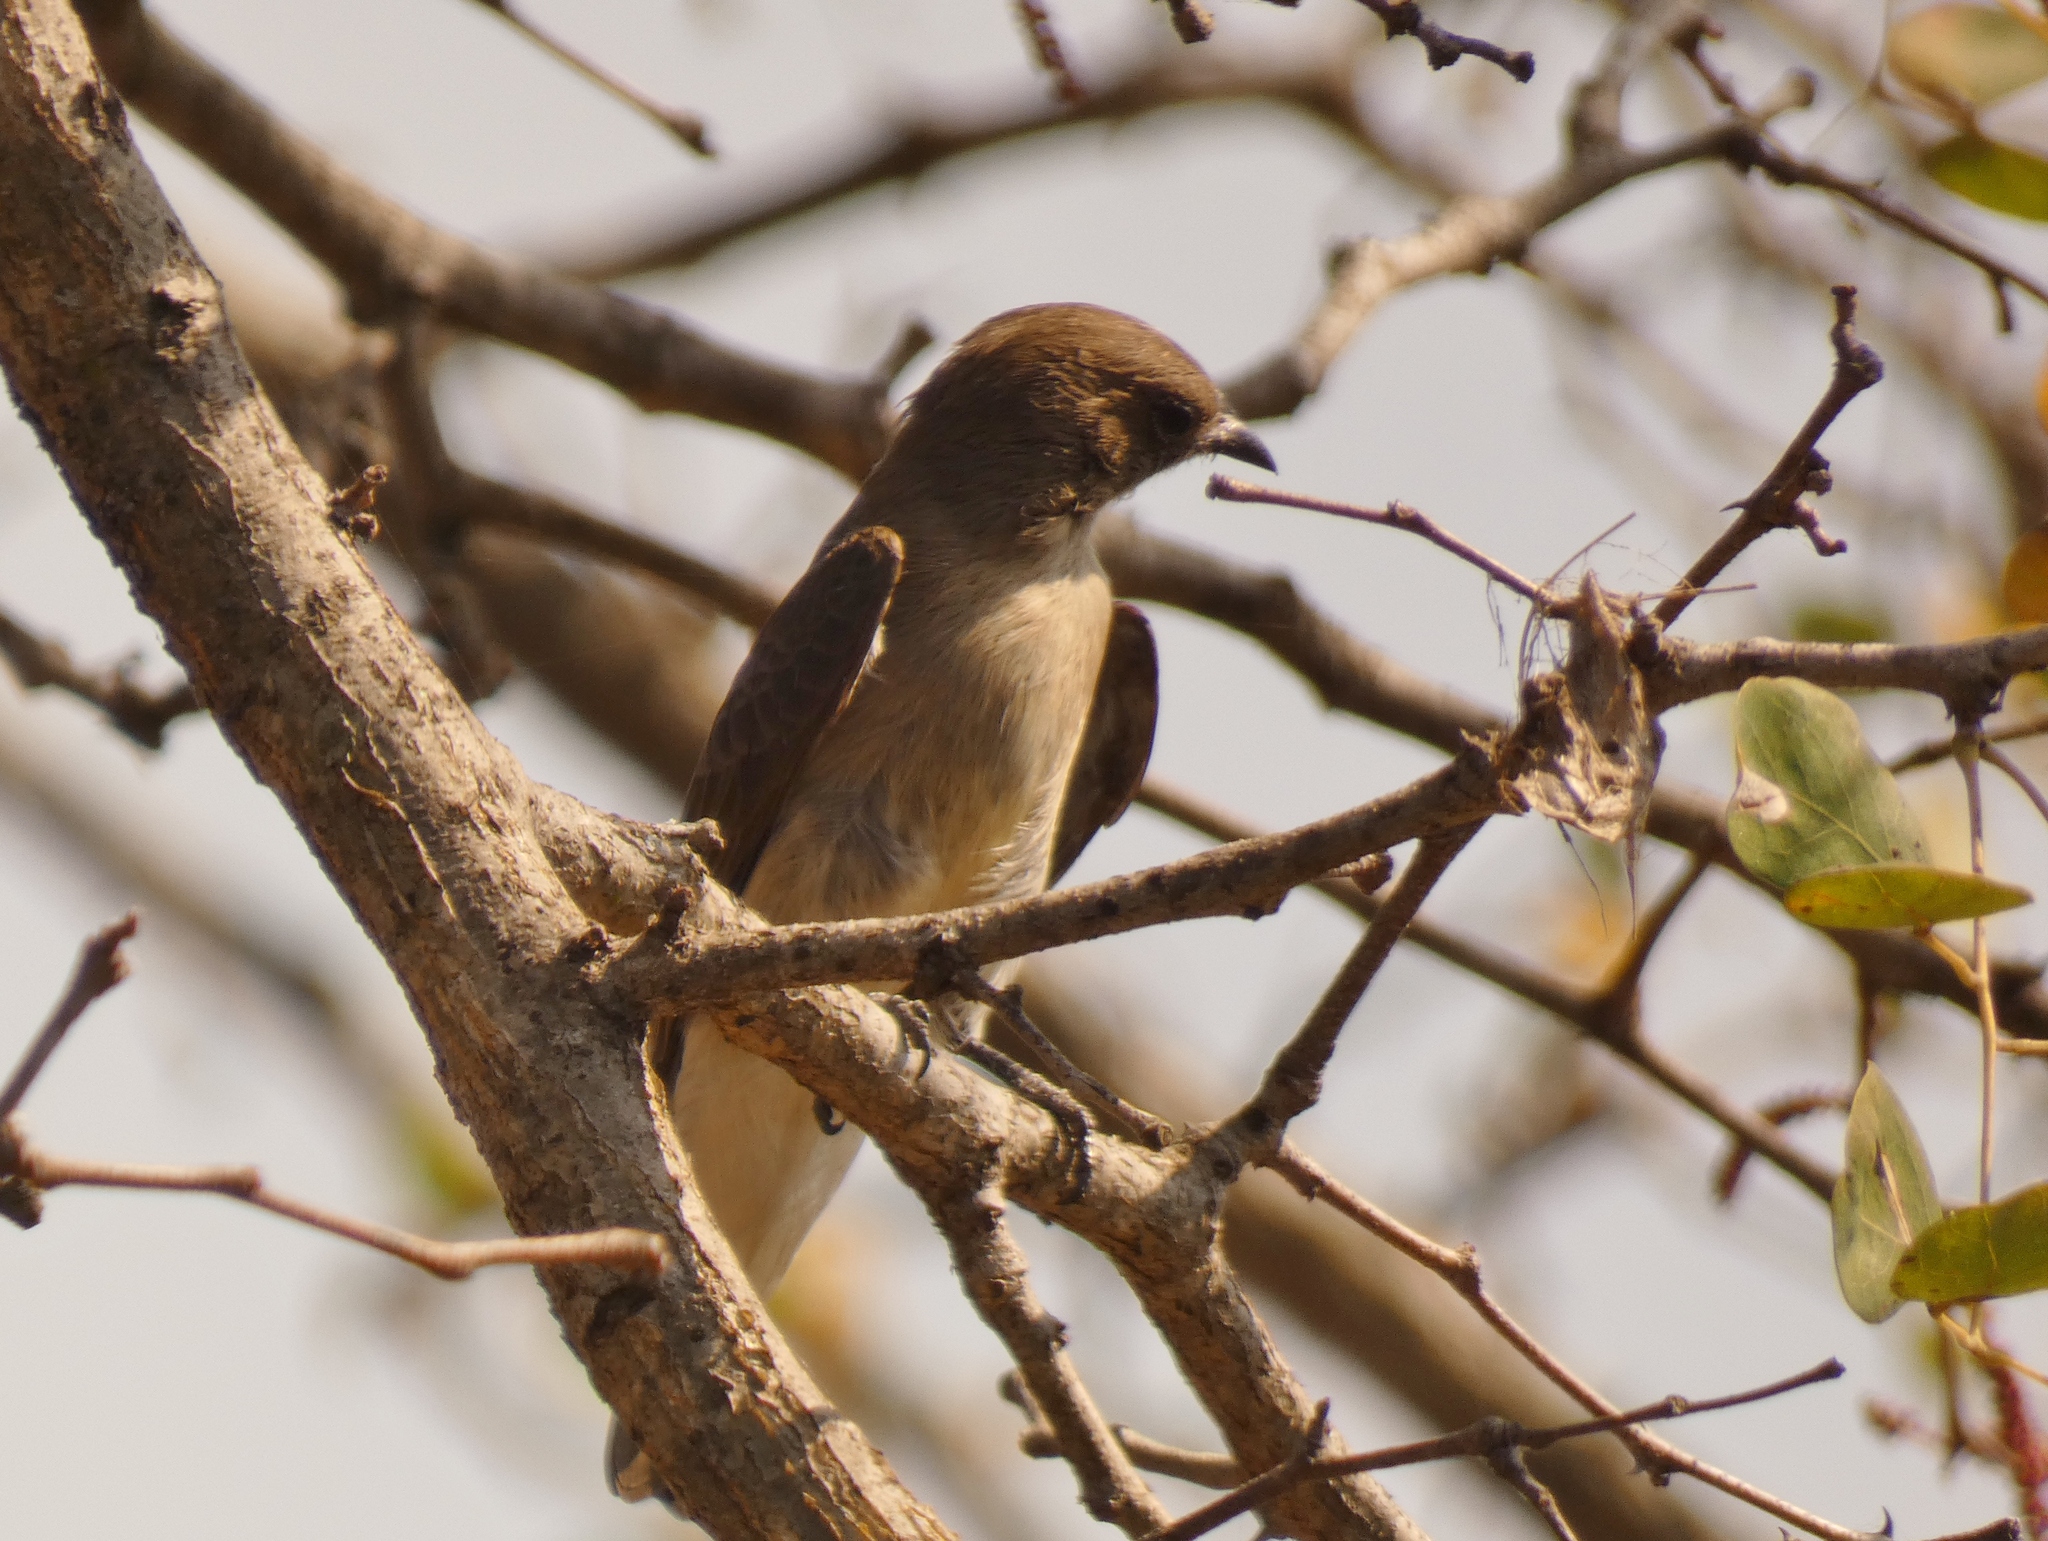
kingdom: Animalia
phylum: Chordata
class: Aves
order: Piciformes
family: Indicatoridae
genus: Prodotiscus
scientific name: Prodotiscus regulus
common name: Brown-backed honeybird
